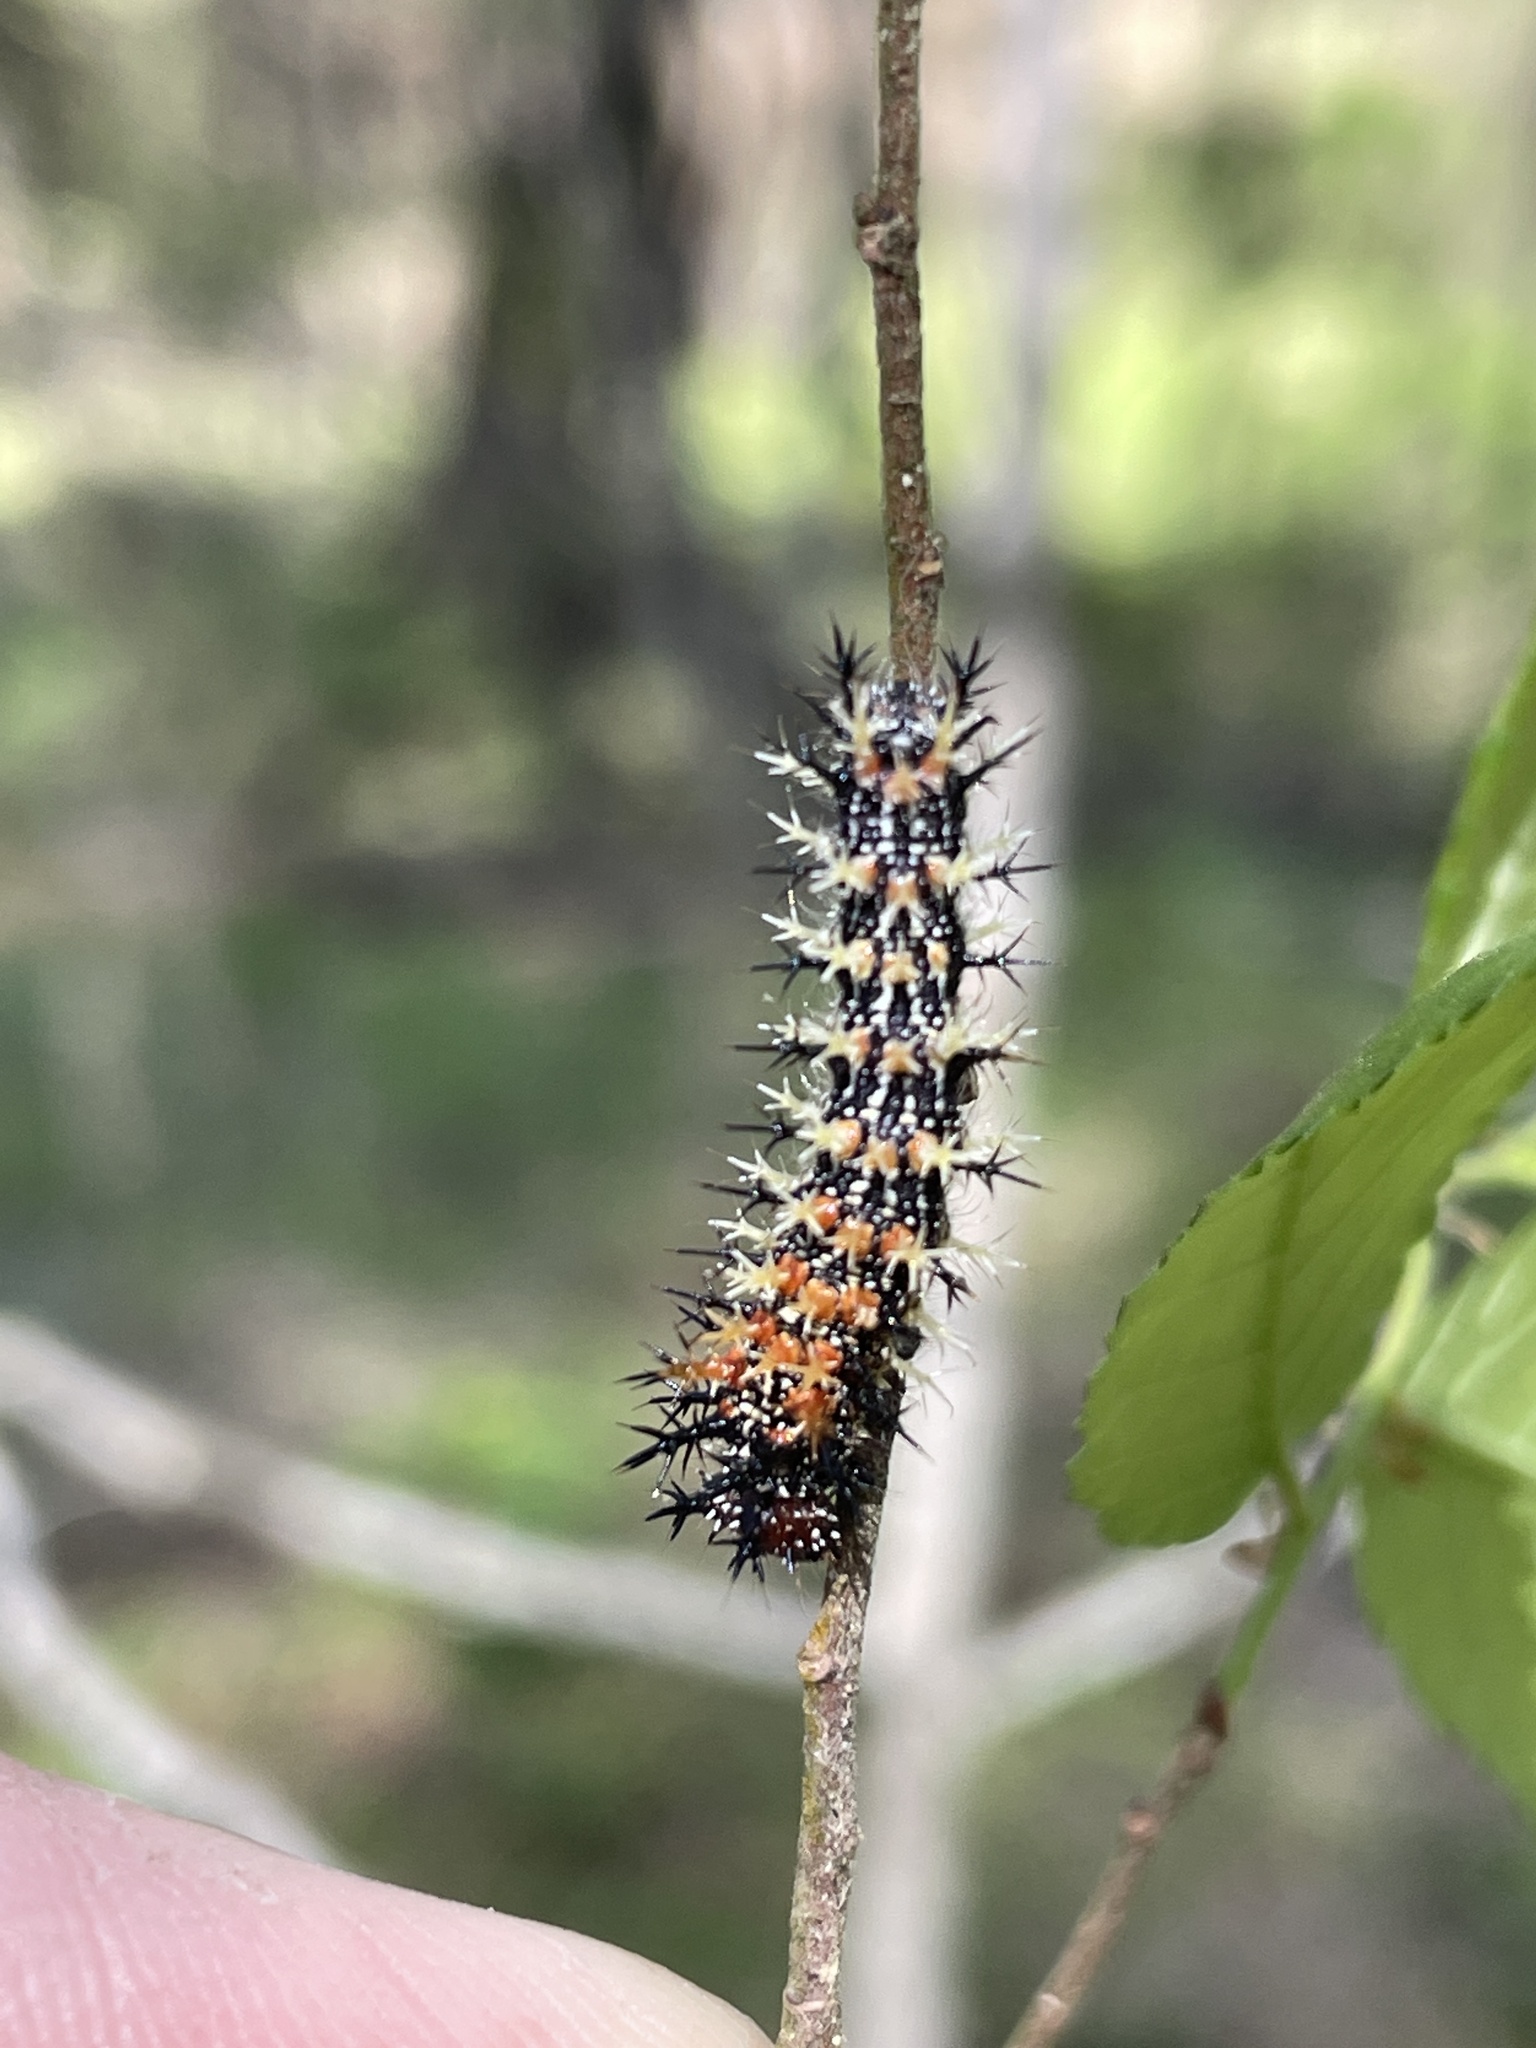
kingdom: Animalia
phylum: Arthropoda
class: Insecta
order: Lepidoptera
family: Nymphalidae
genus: Polygonia
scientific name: Polygonia interrogationis
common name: Question mark
